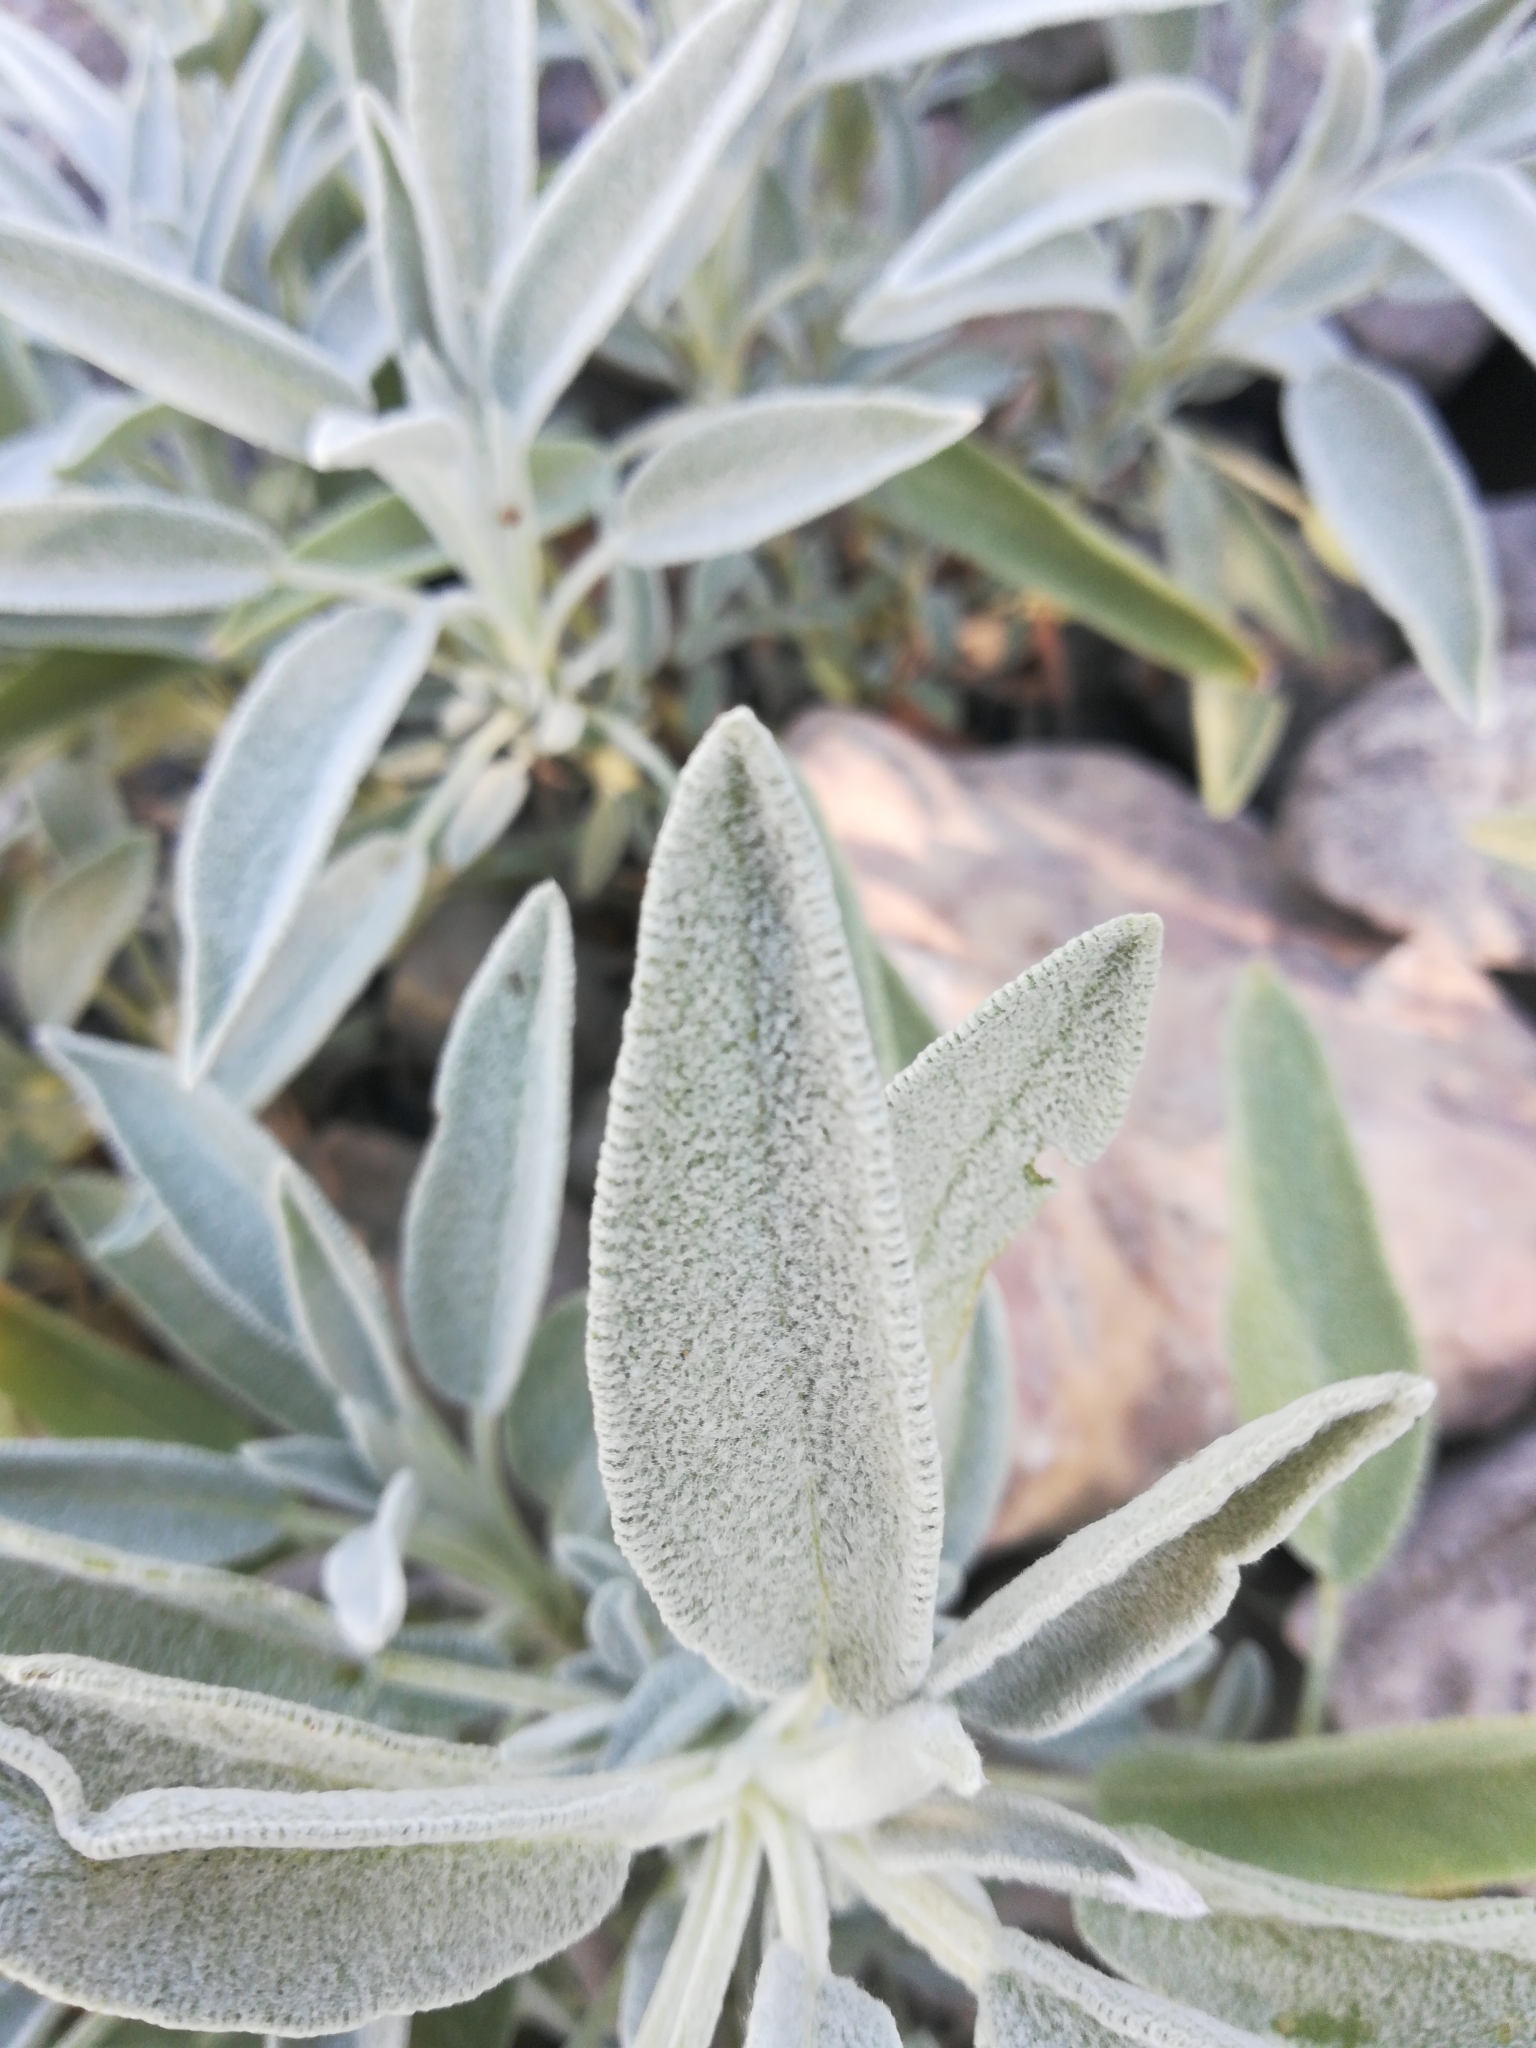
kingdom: Plantae
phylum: Tracheophyta
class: Magnoliopsida
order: Lamiales
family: Lamiaceae
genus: Salvia
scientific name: Salvia officinalis
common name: Sage
